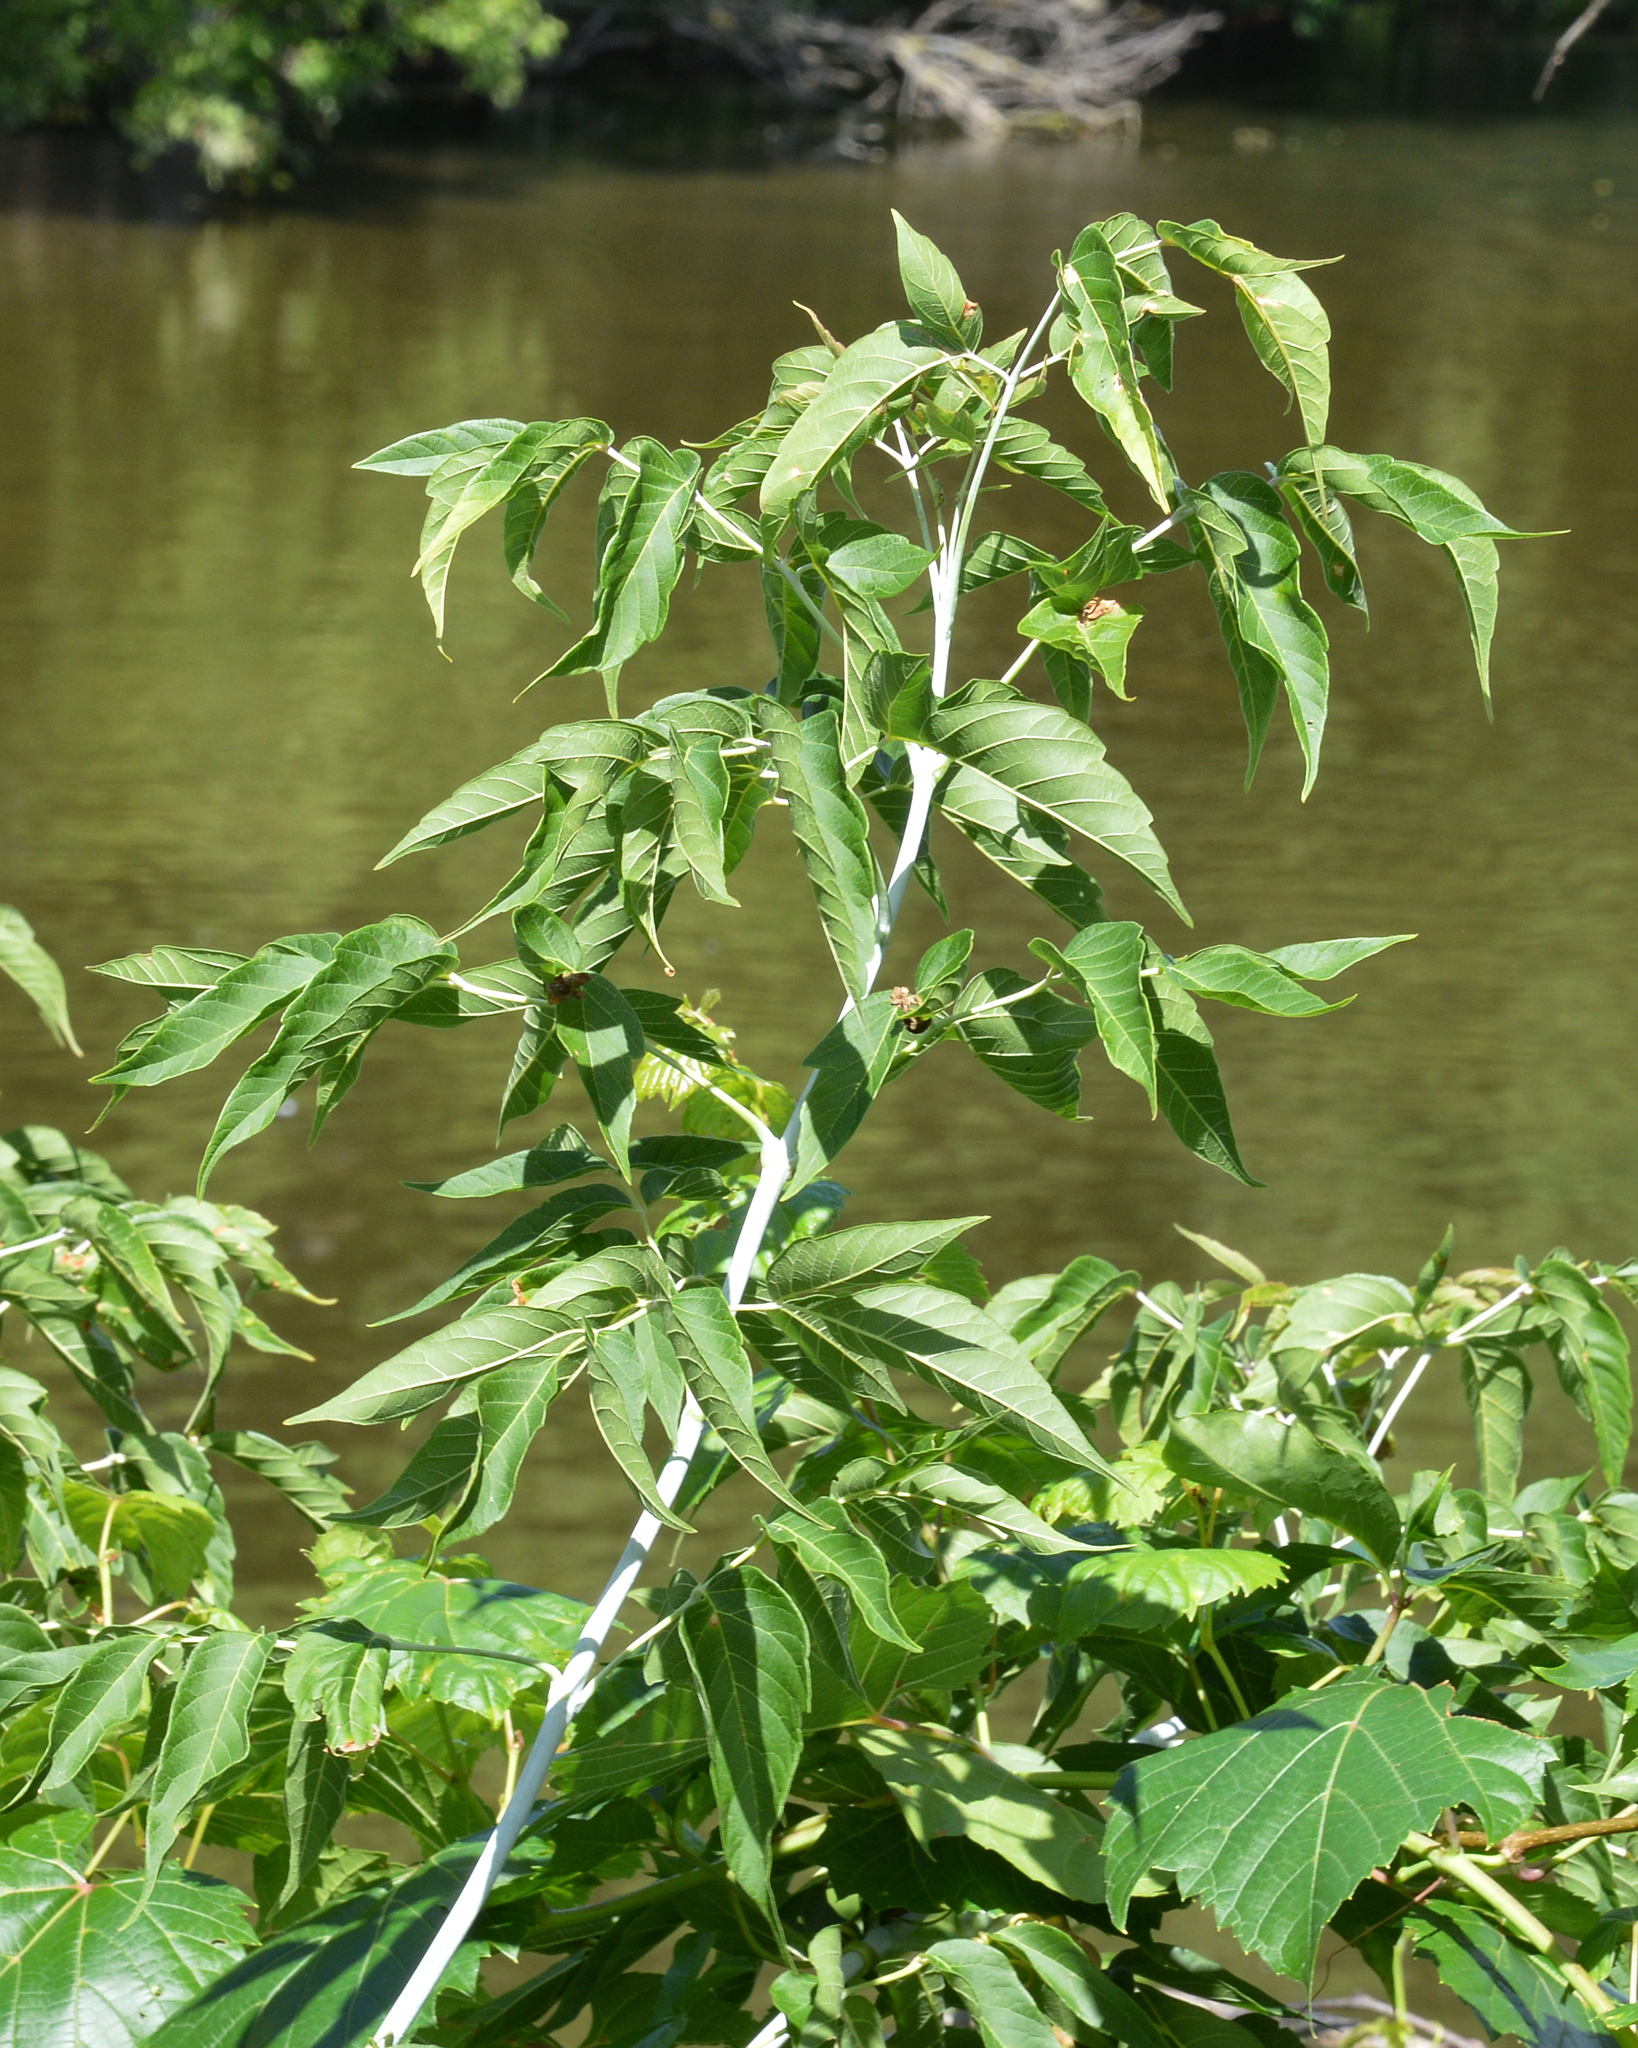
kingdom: Plantae
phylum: Tracheophyta
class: Magnoliopsida
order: Sapindales
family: Sapindaceae
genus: Acer
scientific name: Acer negundo
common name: Ashleaf maple
